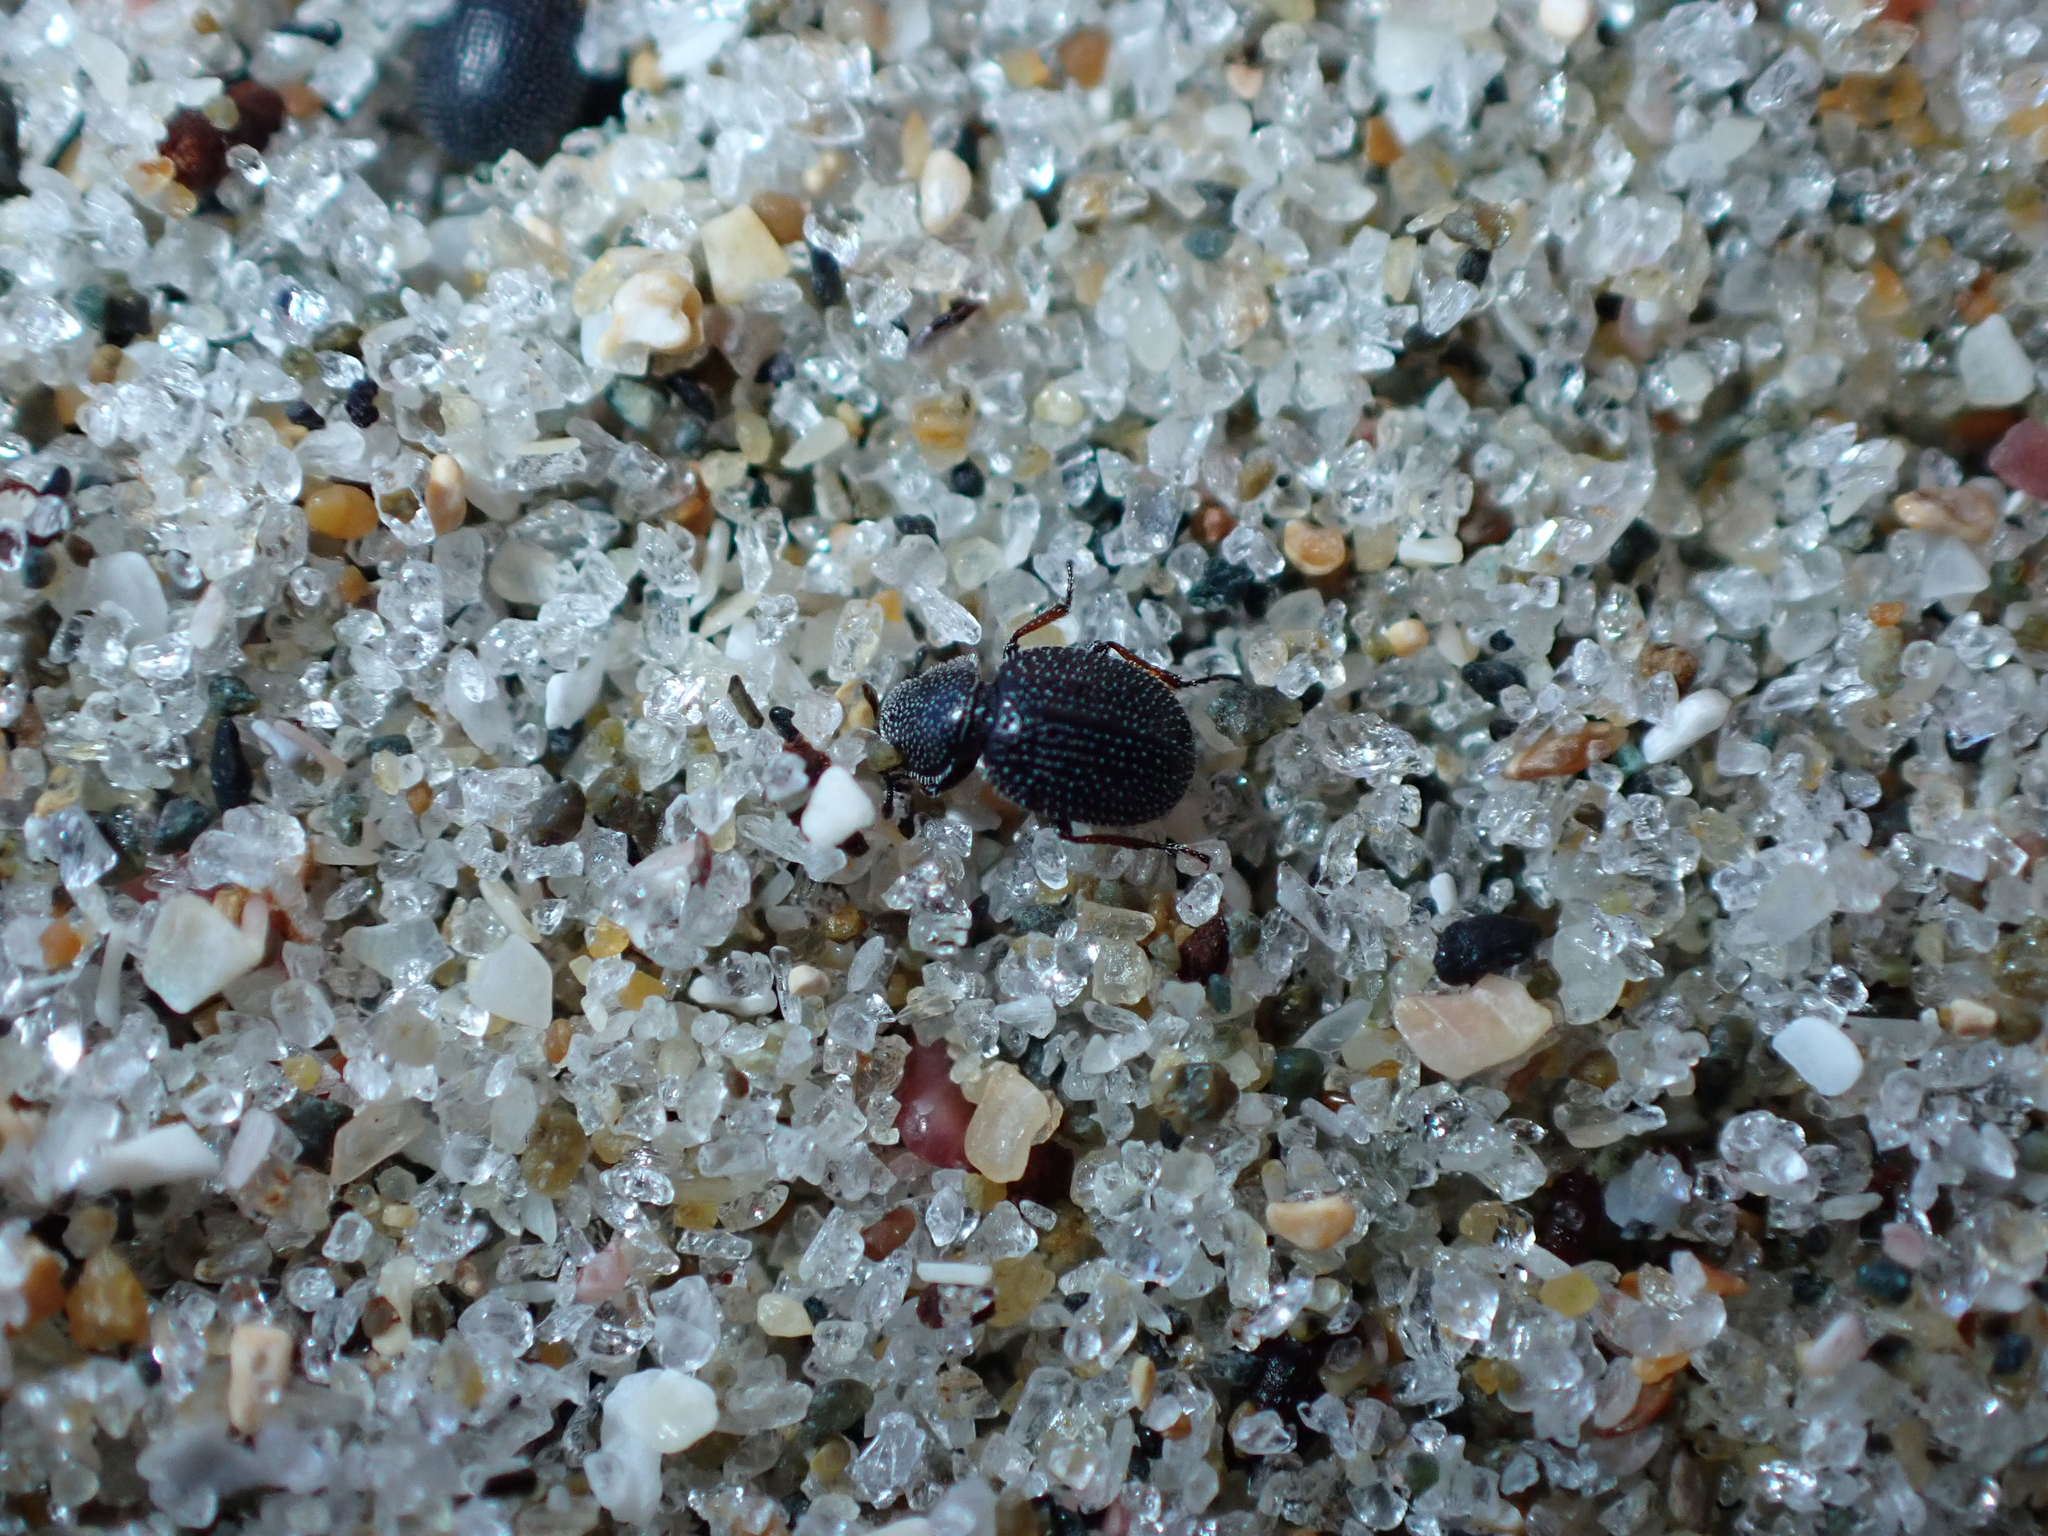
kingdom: Animalia
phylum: Arthropoda
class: Insecta
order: Coleoptera
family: Phycosecidae
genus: Phycosecis
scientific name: Phycosecis
